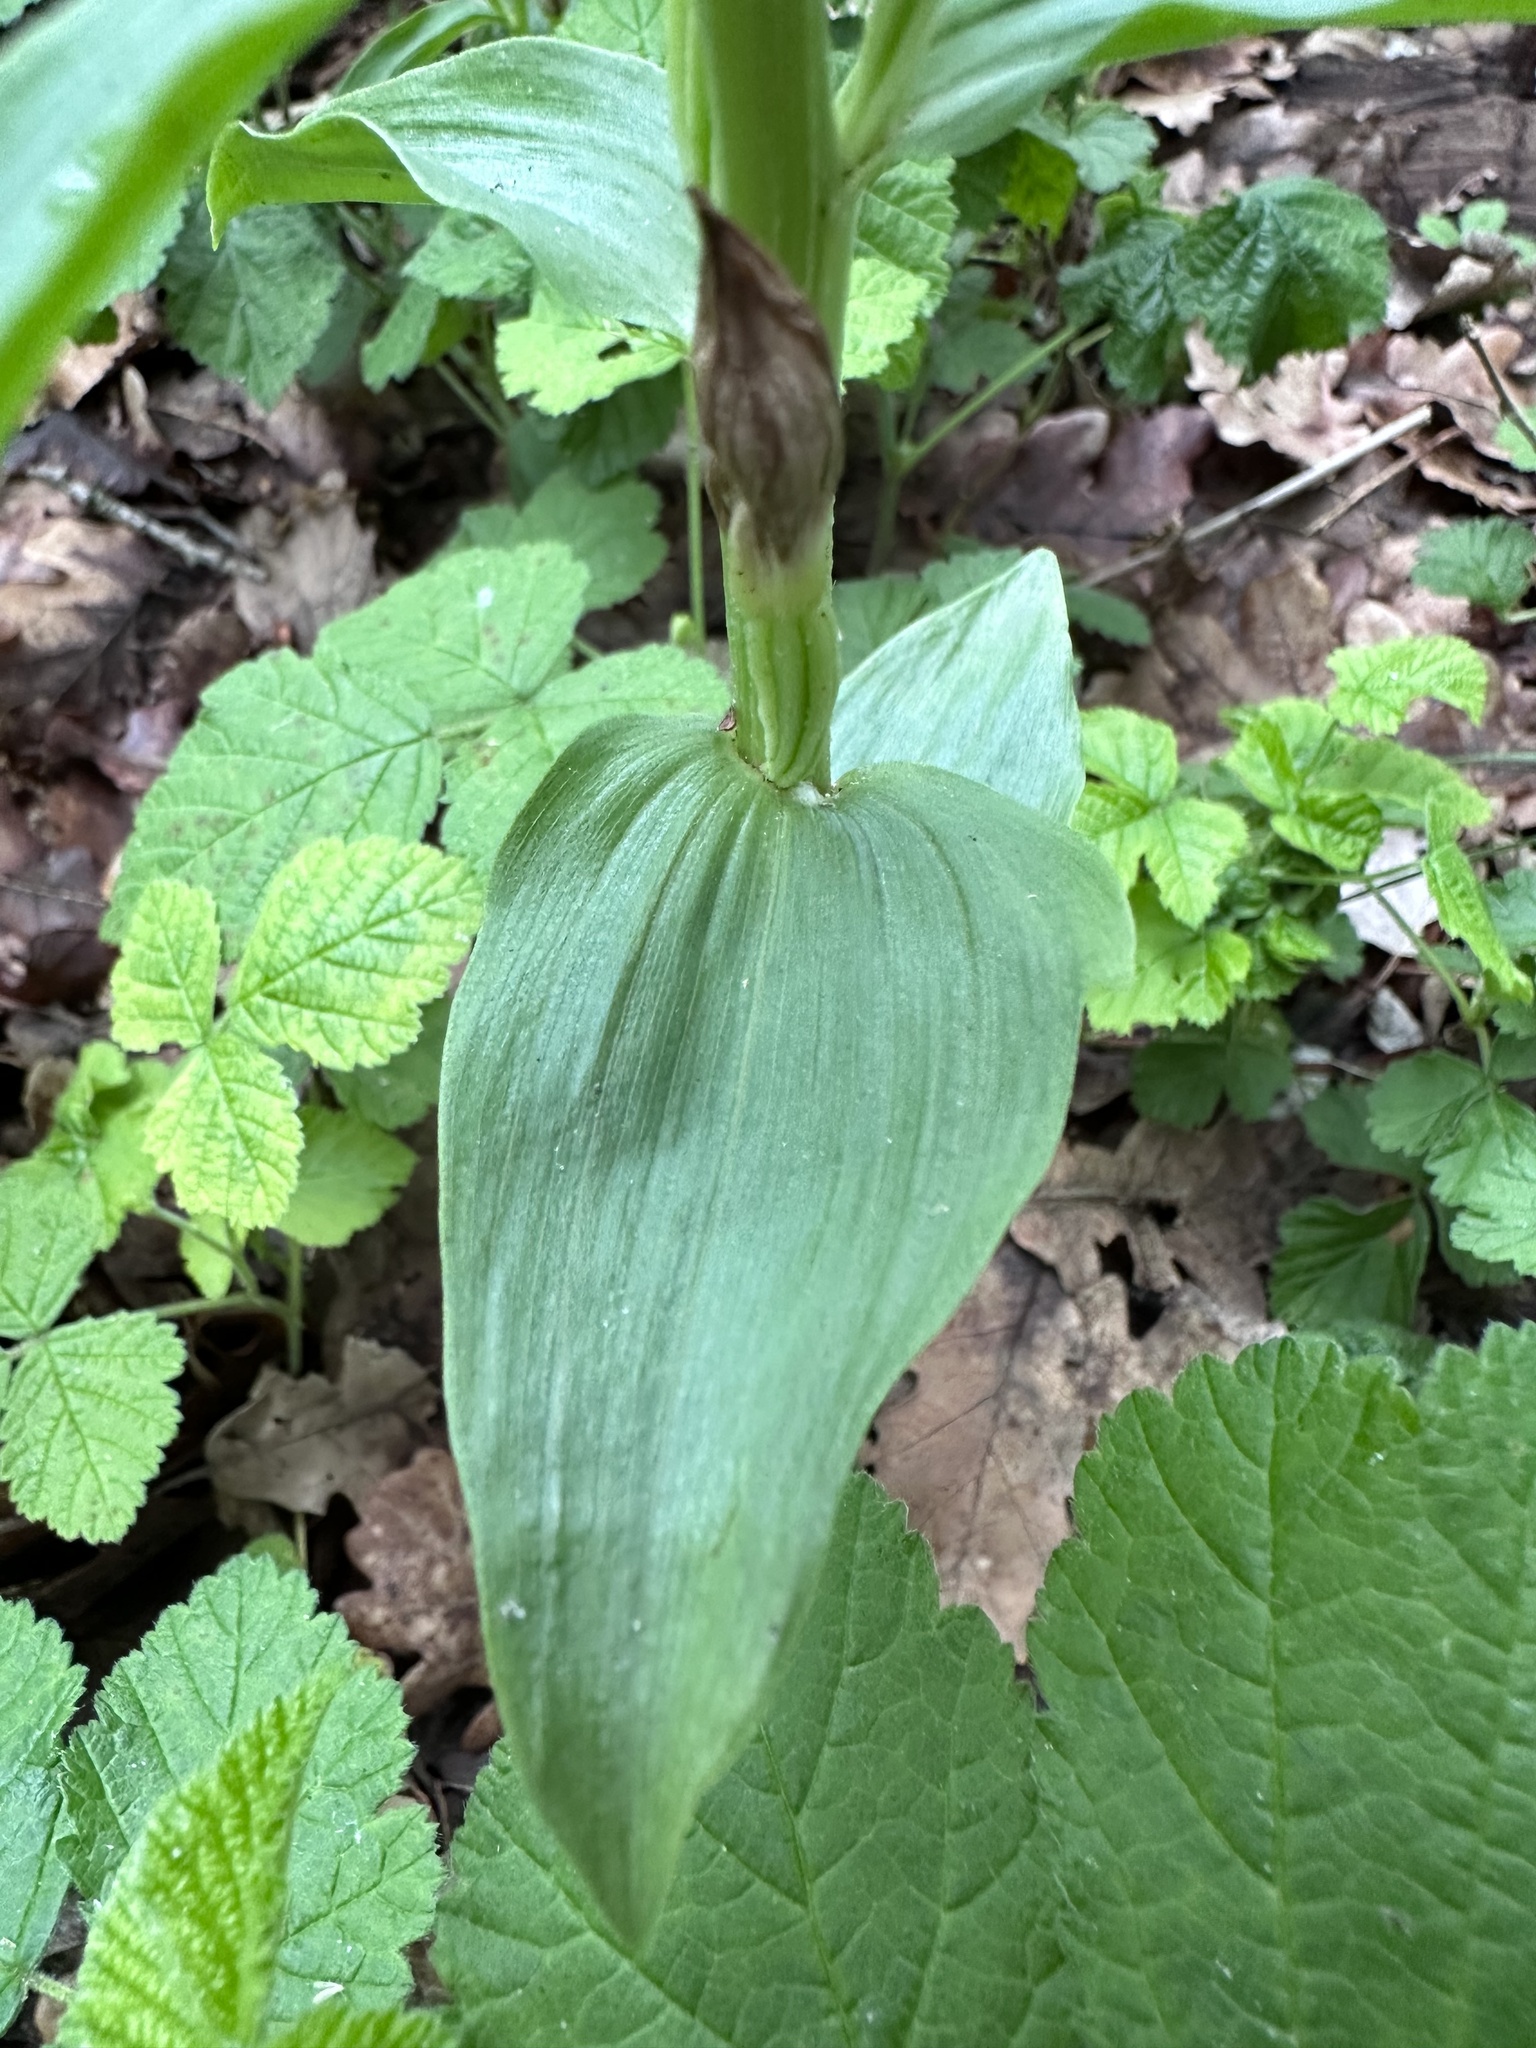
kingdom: Plantae
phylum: Tracheophyta
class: Liliopsida
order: Asparagales
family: Orchidaceae
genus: Cephalanthera
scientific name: Cephalanthera damasonium
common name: White helleborine
